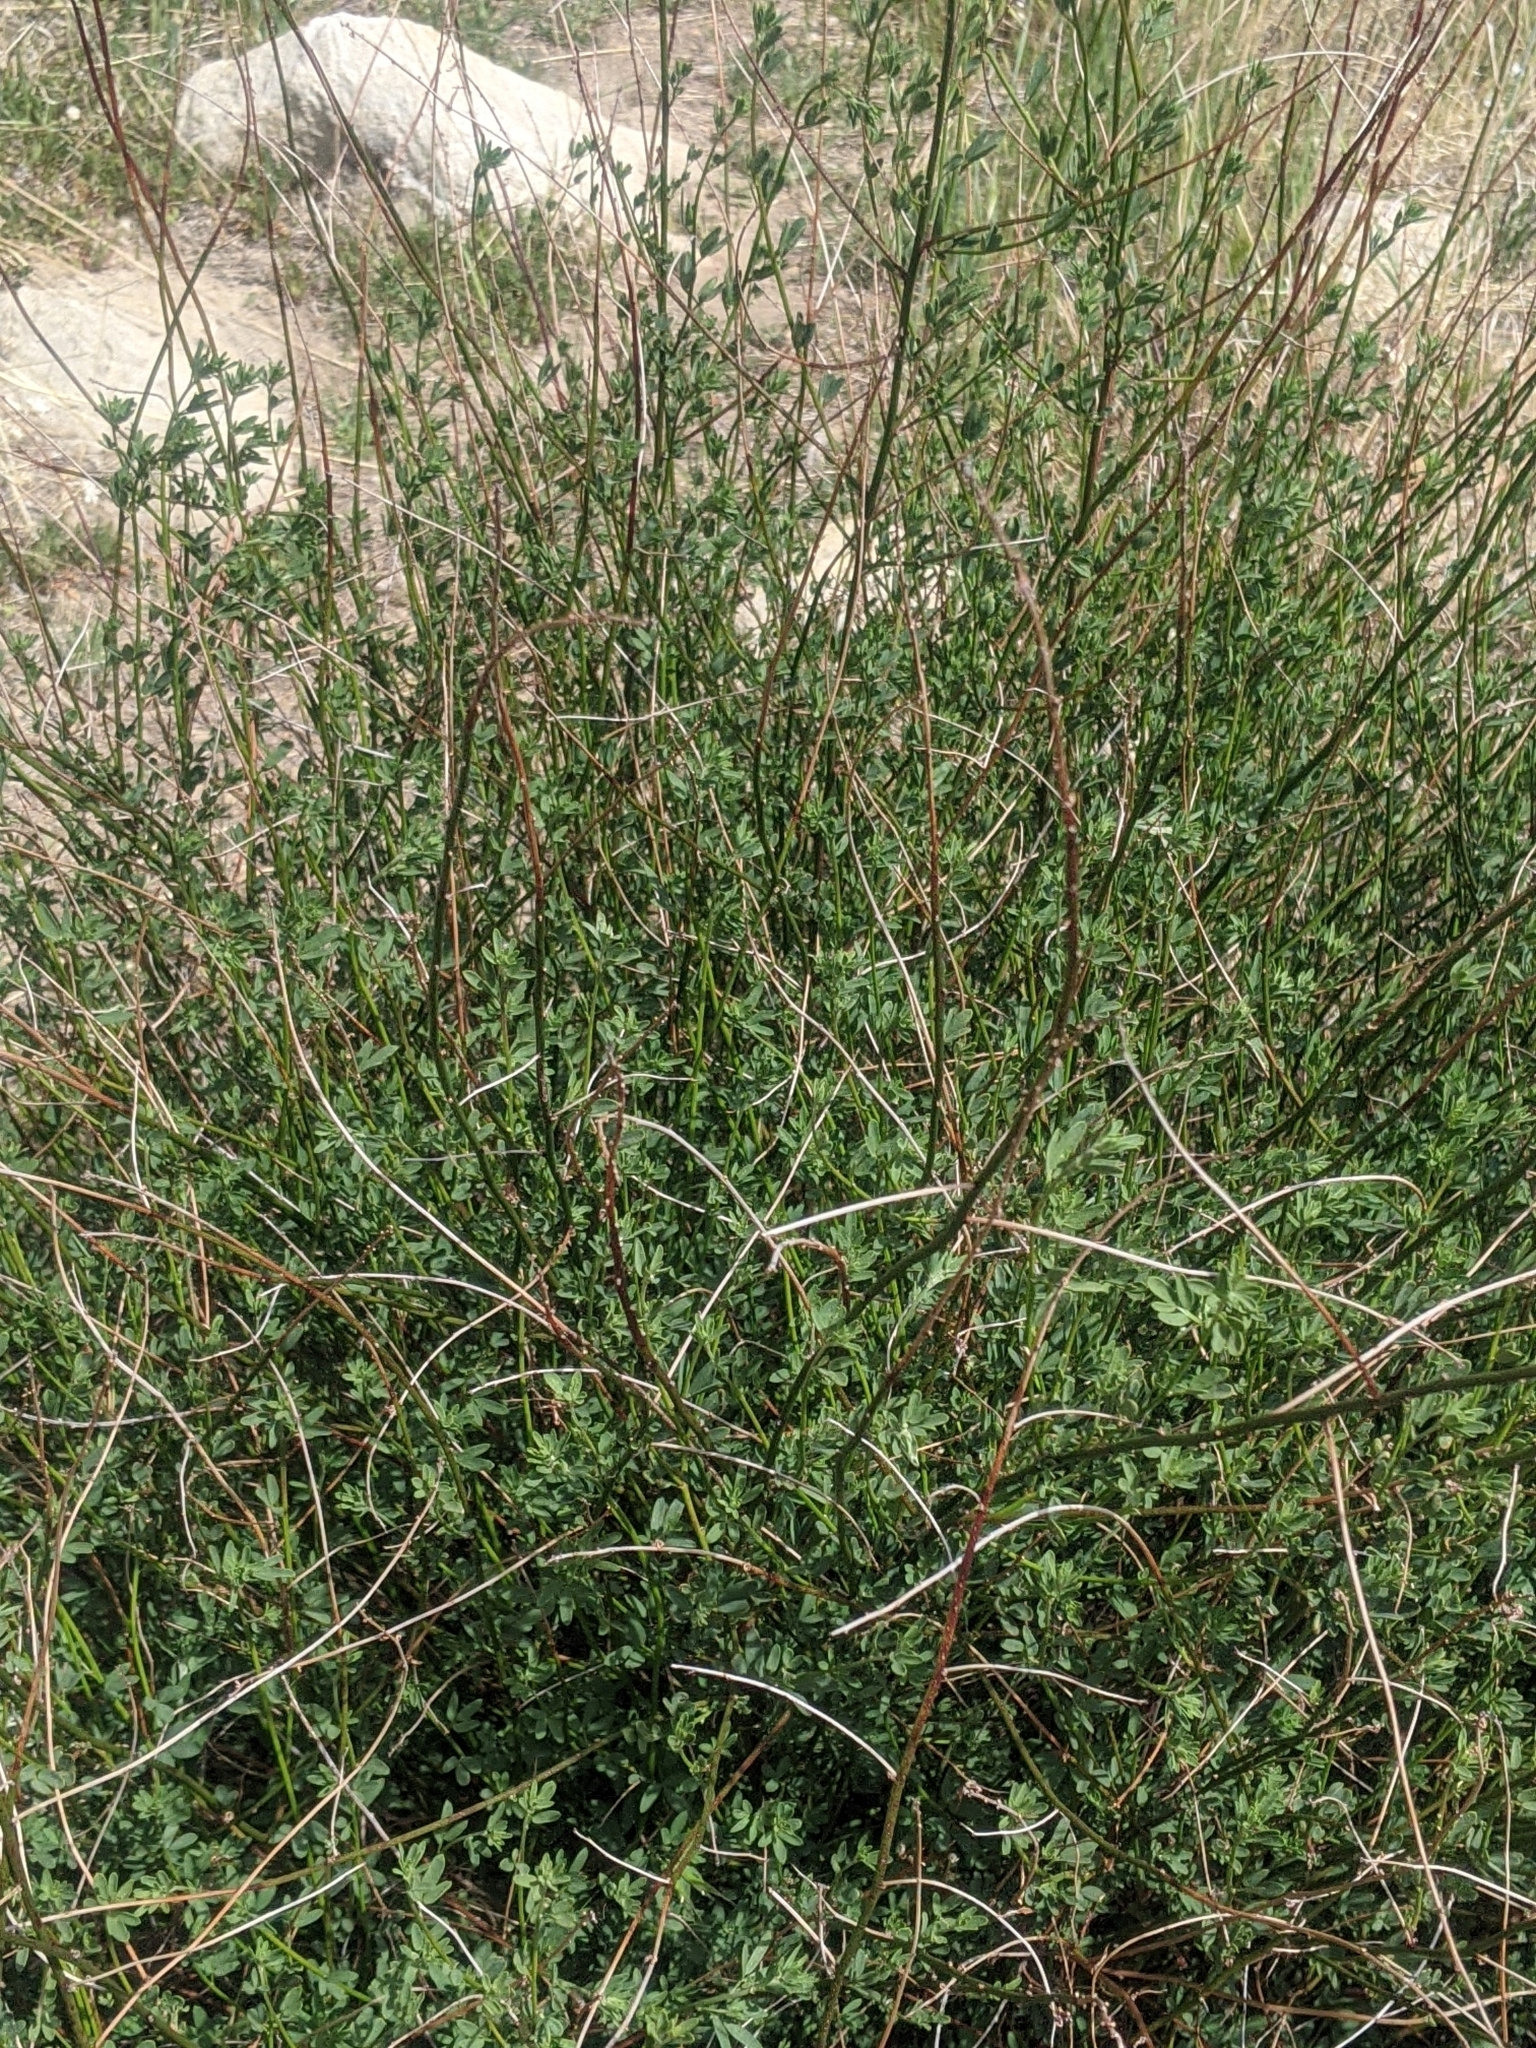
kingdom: Plantae
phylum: Tracheophyta
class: Magnoliopsida
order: Fabales
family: Fabaceae
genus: Acmispon
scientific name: Acmispon glaber
